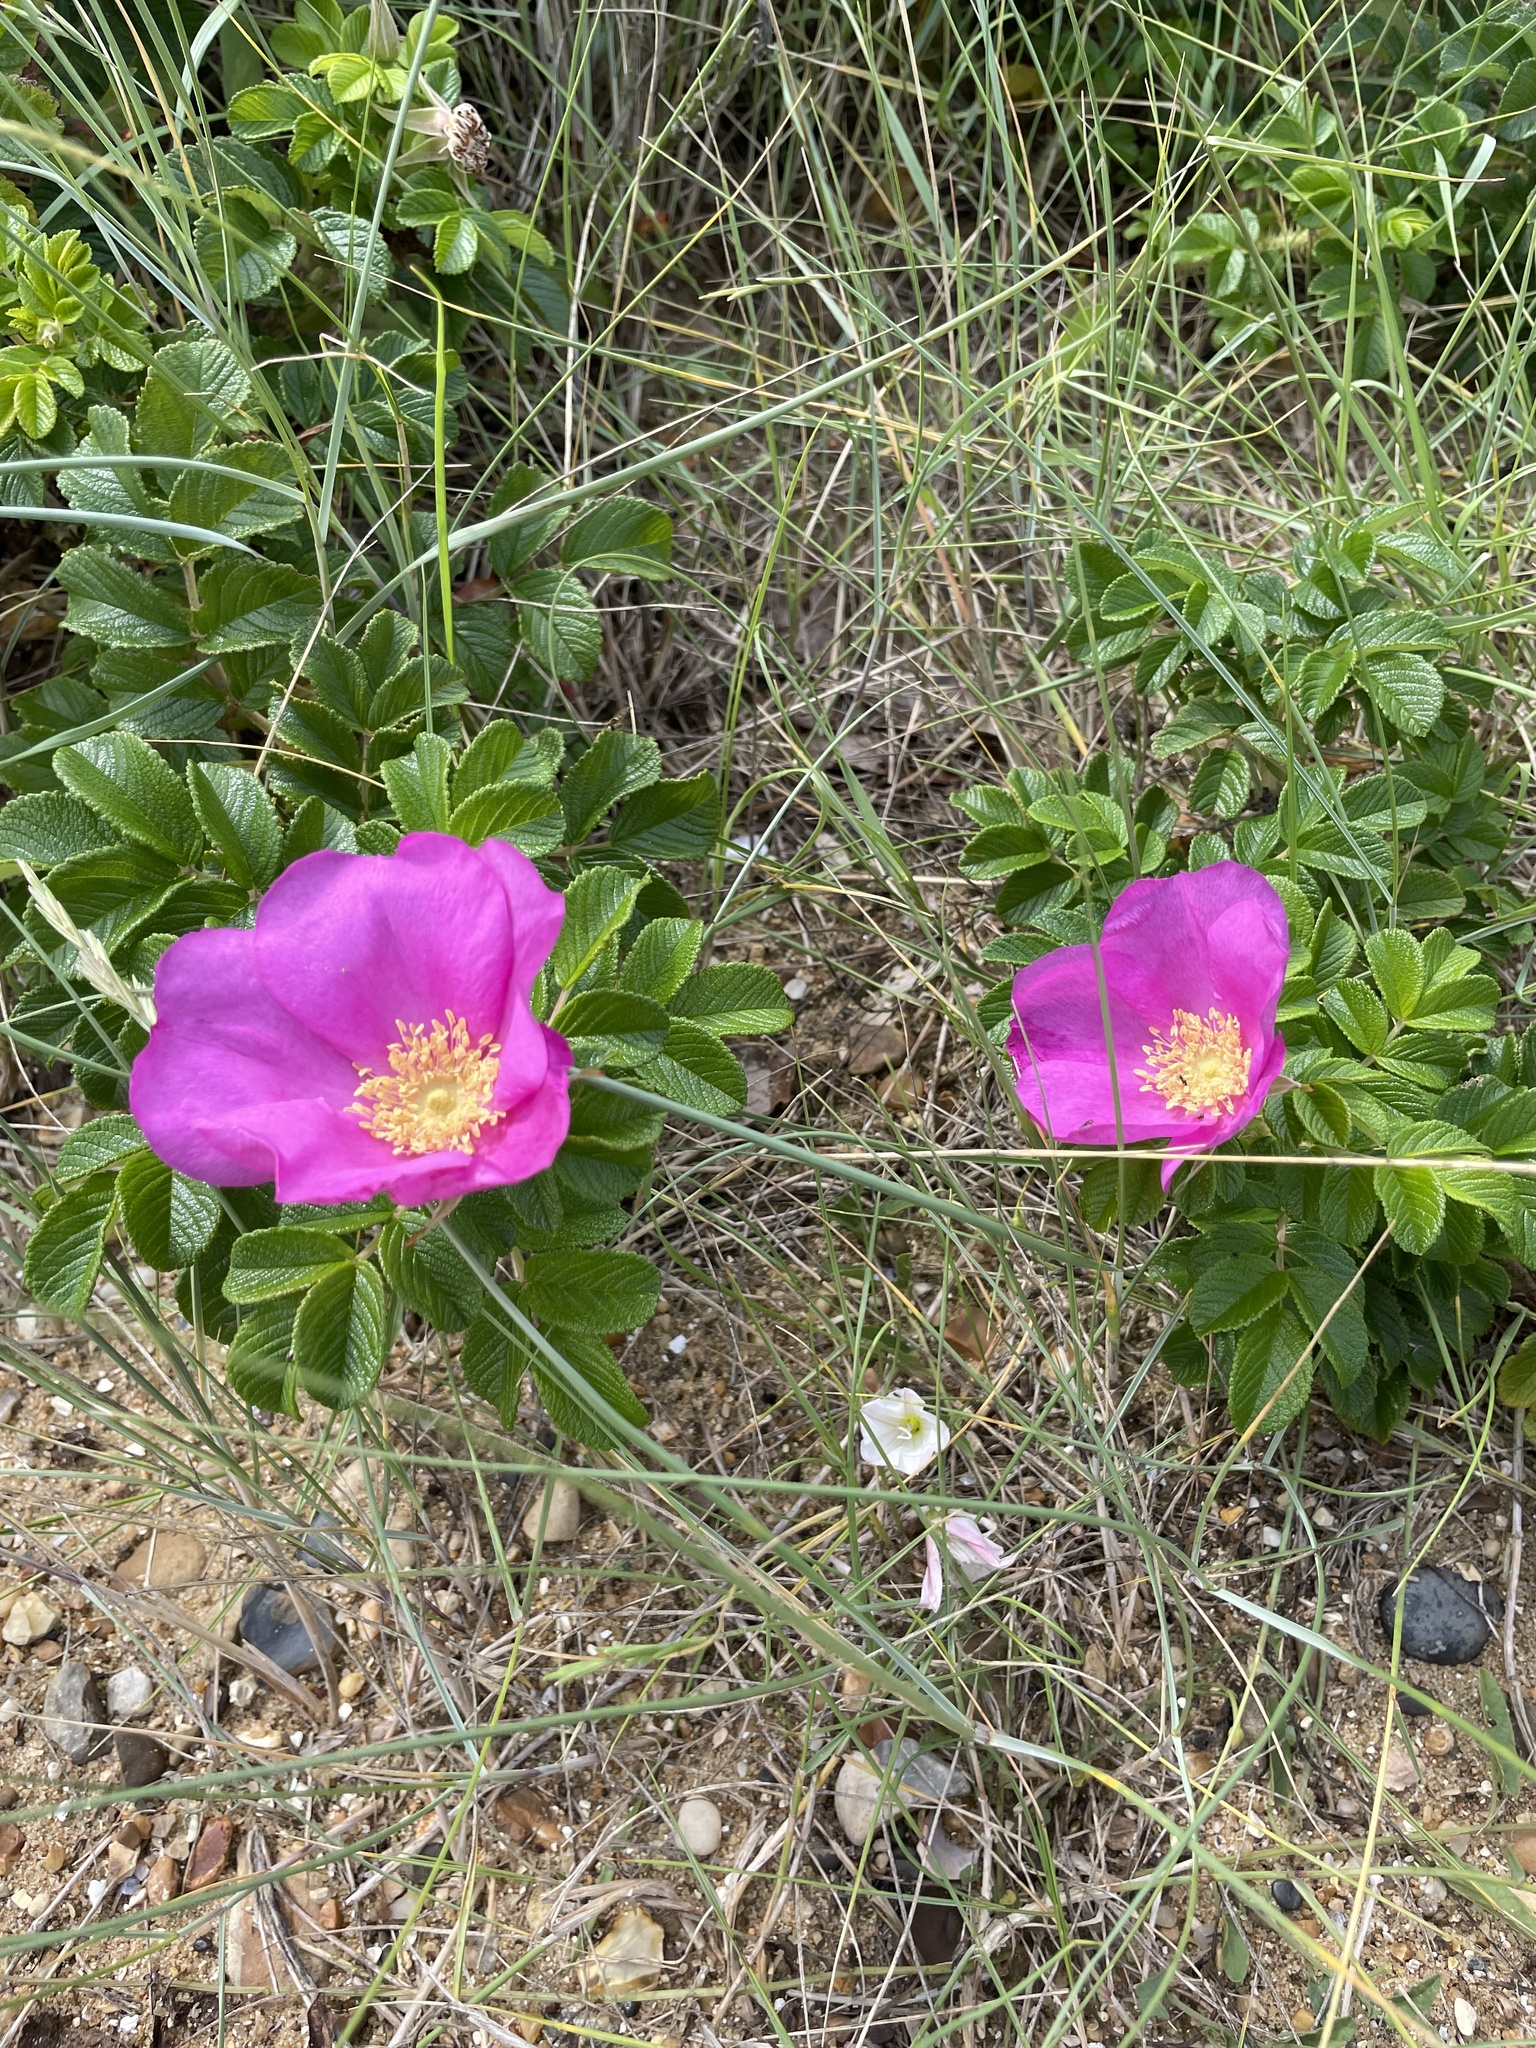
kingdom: Plantae
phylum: Tracheophyta
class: Magnoliopsida
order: Rosales
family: Rosaceae
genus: Rosa
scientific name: Rosa rugosa
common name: Japanese rose
